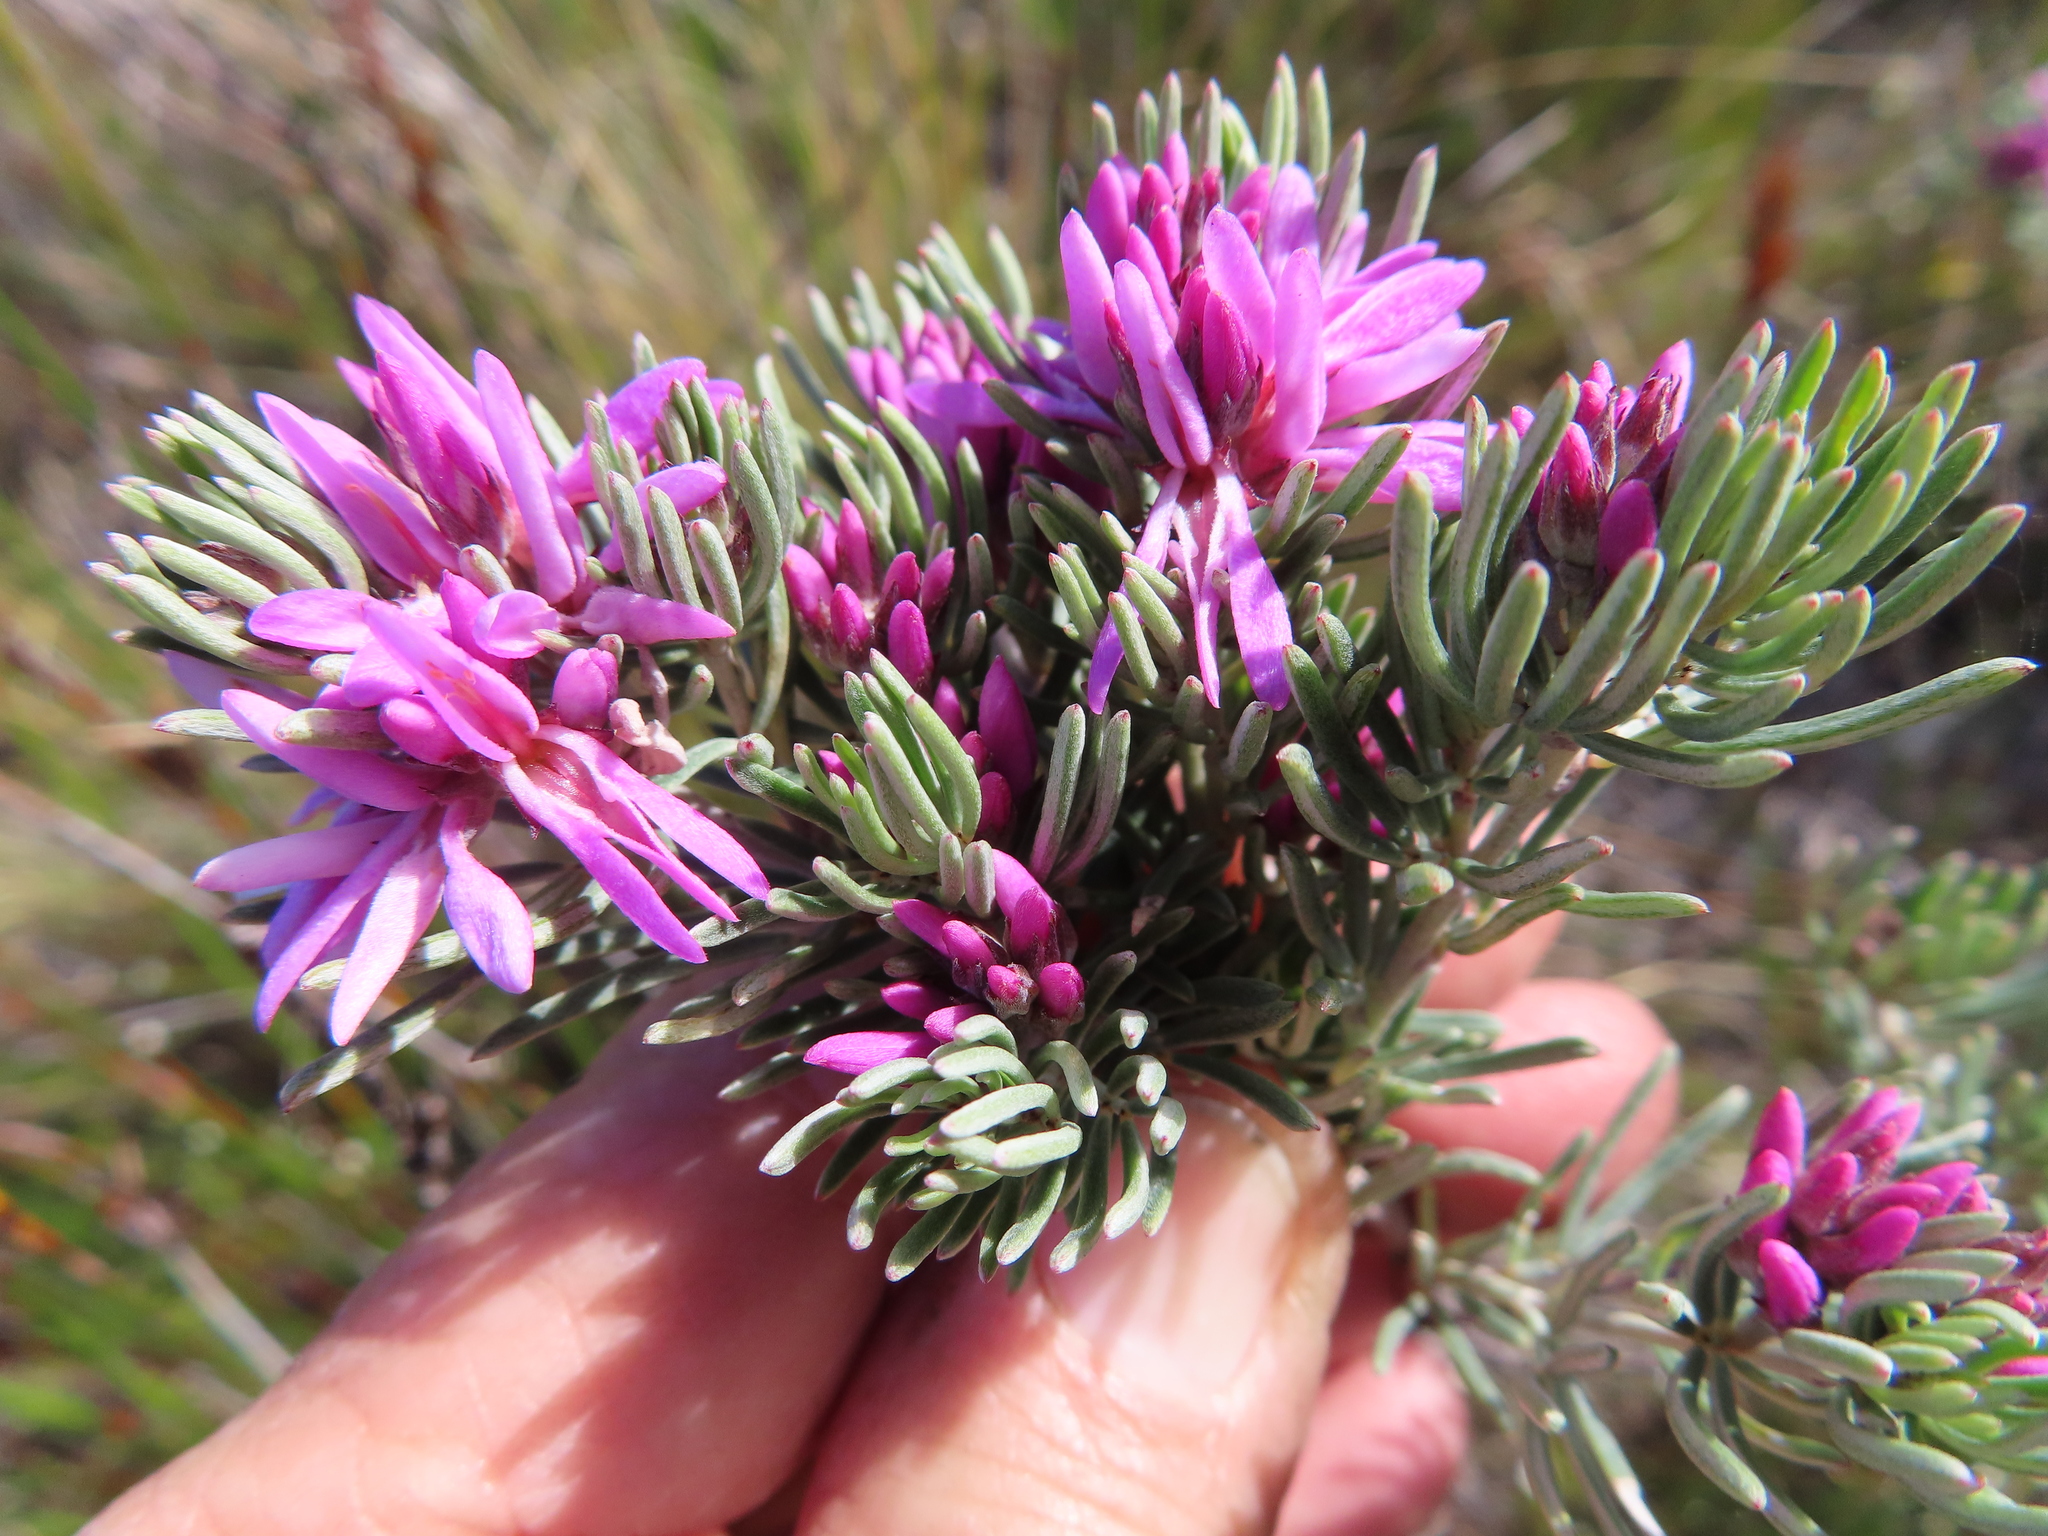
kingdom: Plantae
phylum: Tracheophyta
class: Magnoliopsida
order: Fabales
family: Fabaceae
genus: Indigofera
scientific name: Indigofera
